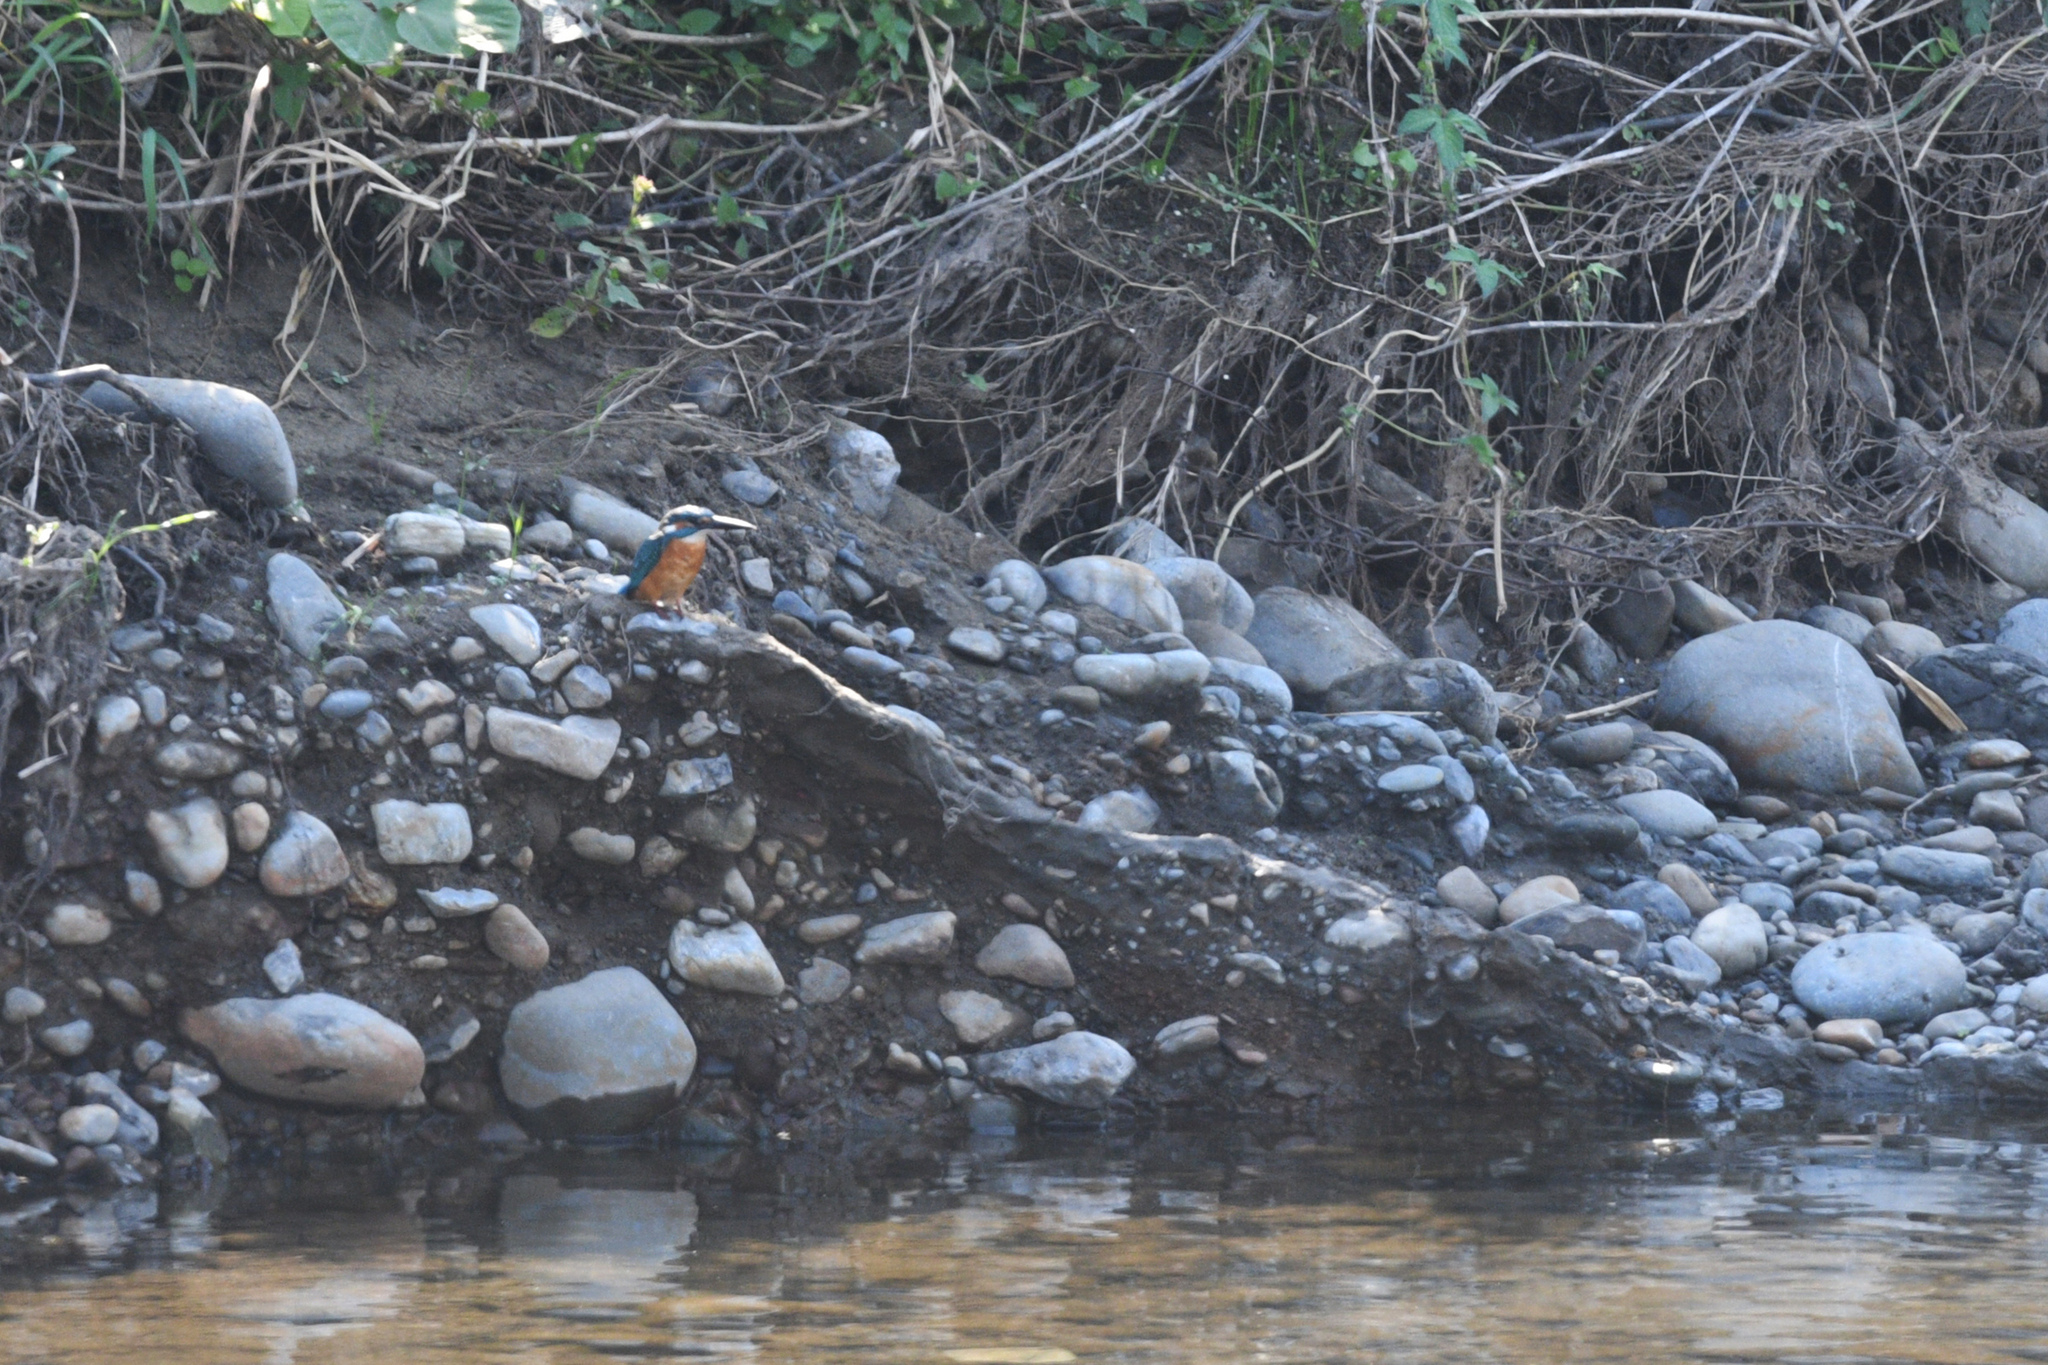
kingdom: Animalia
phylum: Chordata
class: Aves
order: Coraciiformes
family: Alcedinidae
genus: Alcedo
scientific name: Alcedo atthis
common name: Common kingfisher
